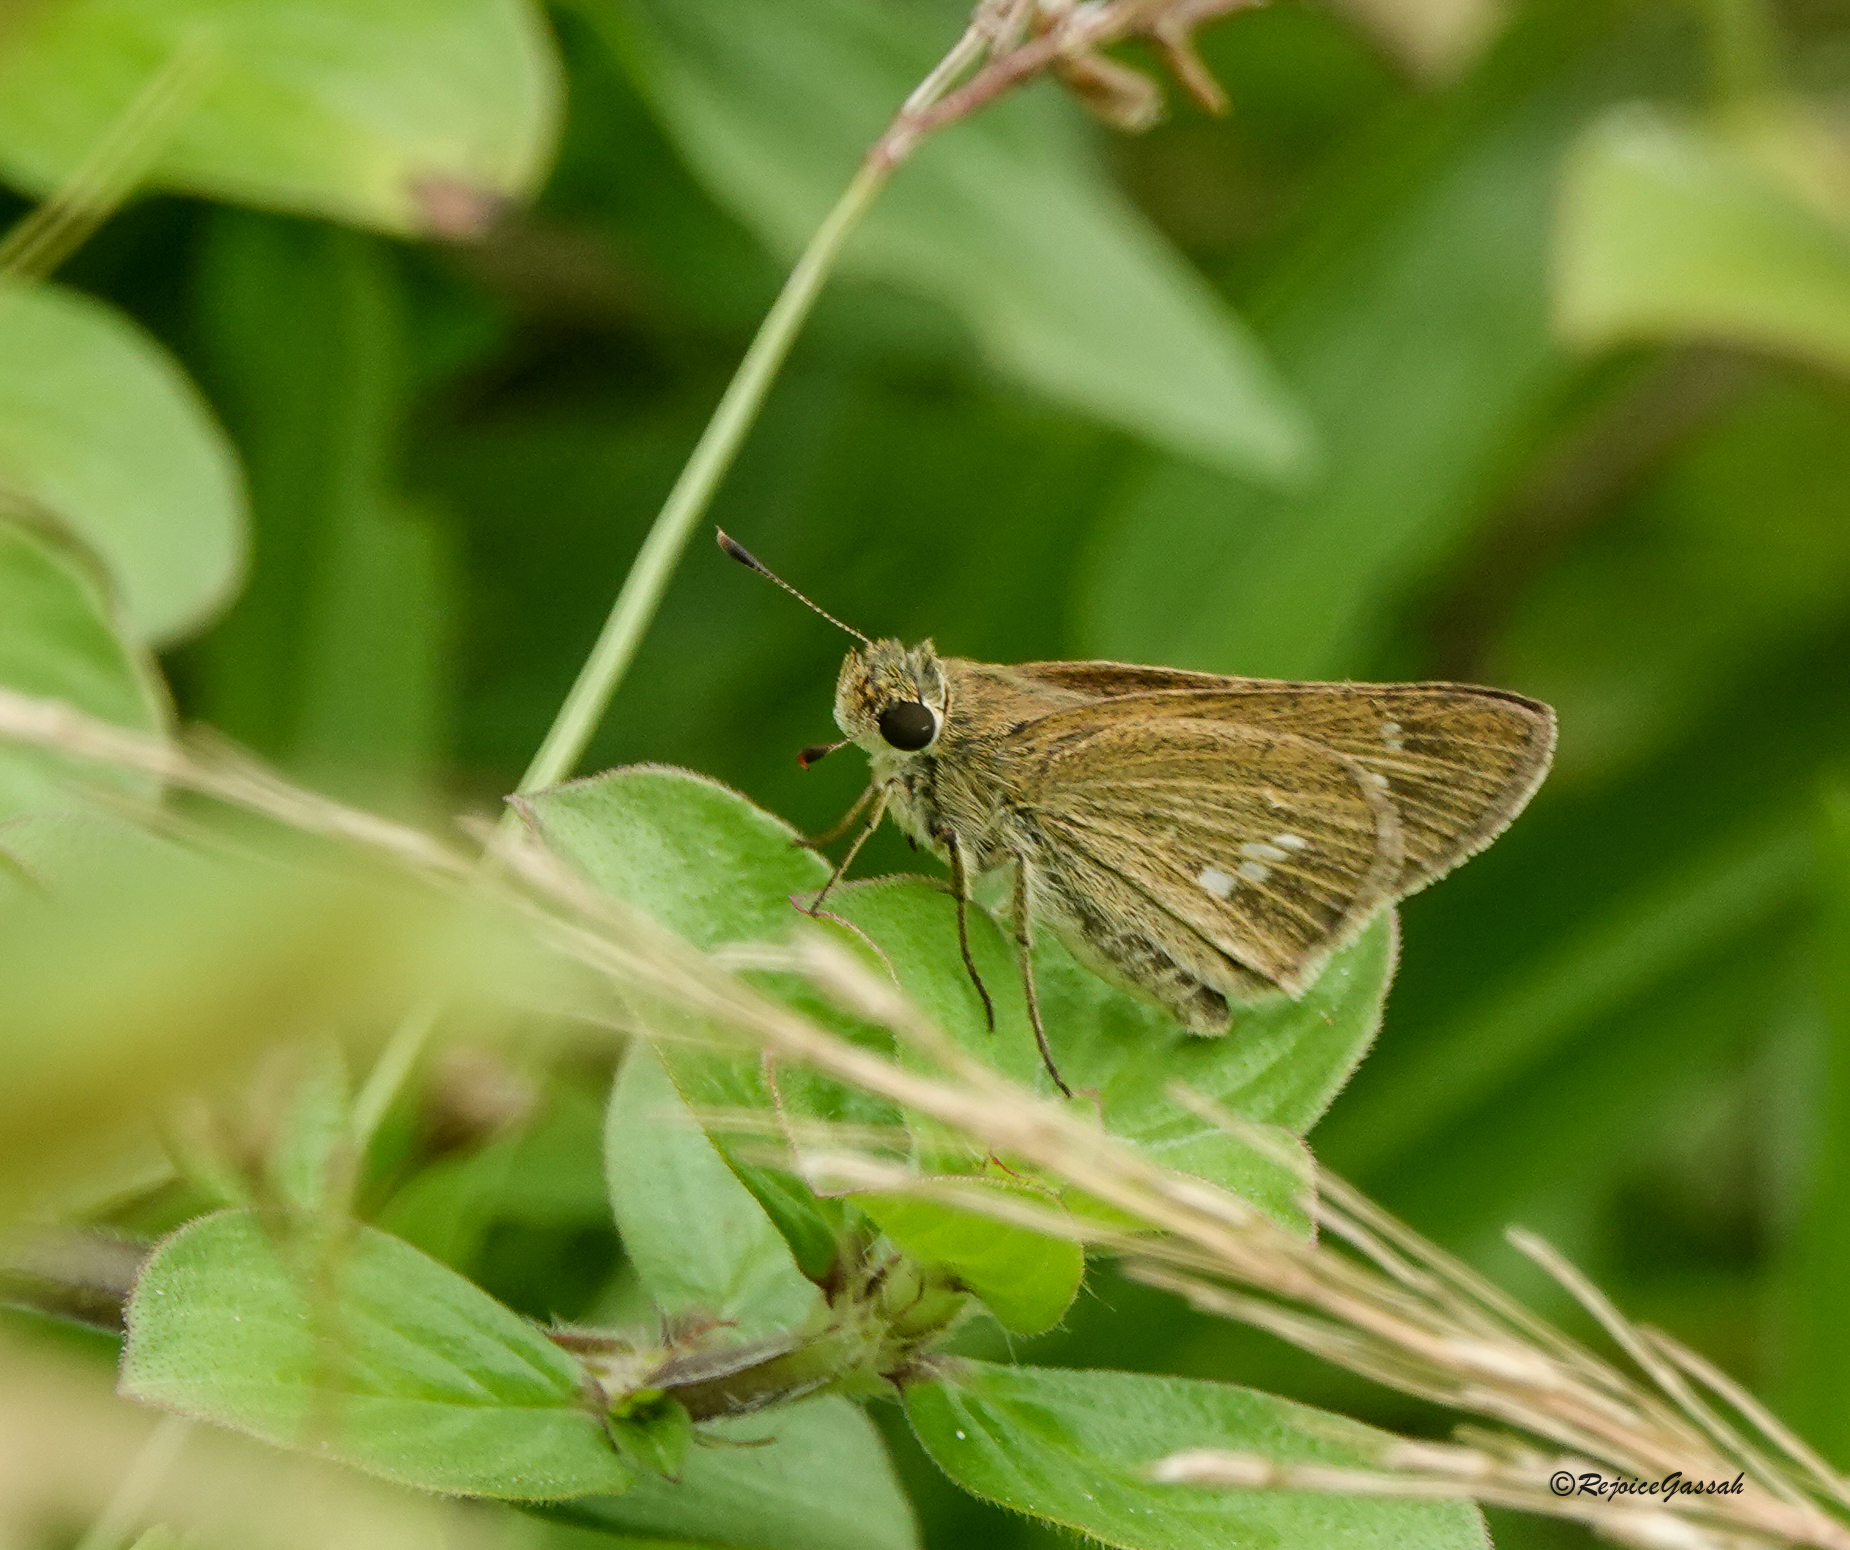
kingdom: Animalia
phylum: Arthropoda
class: Insecta
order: Lepidoptera
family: Hesperiidae
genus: Parnara
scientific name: Parnara naso
